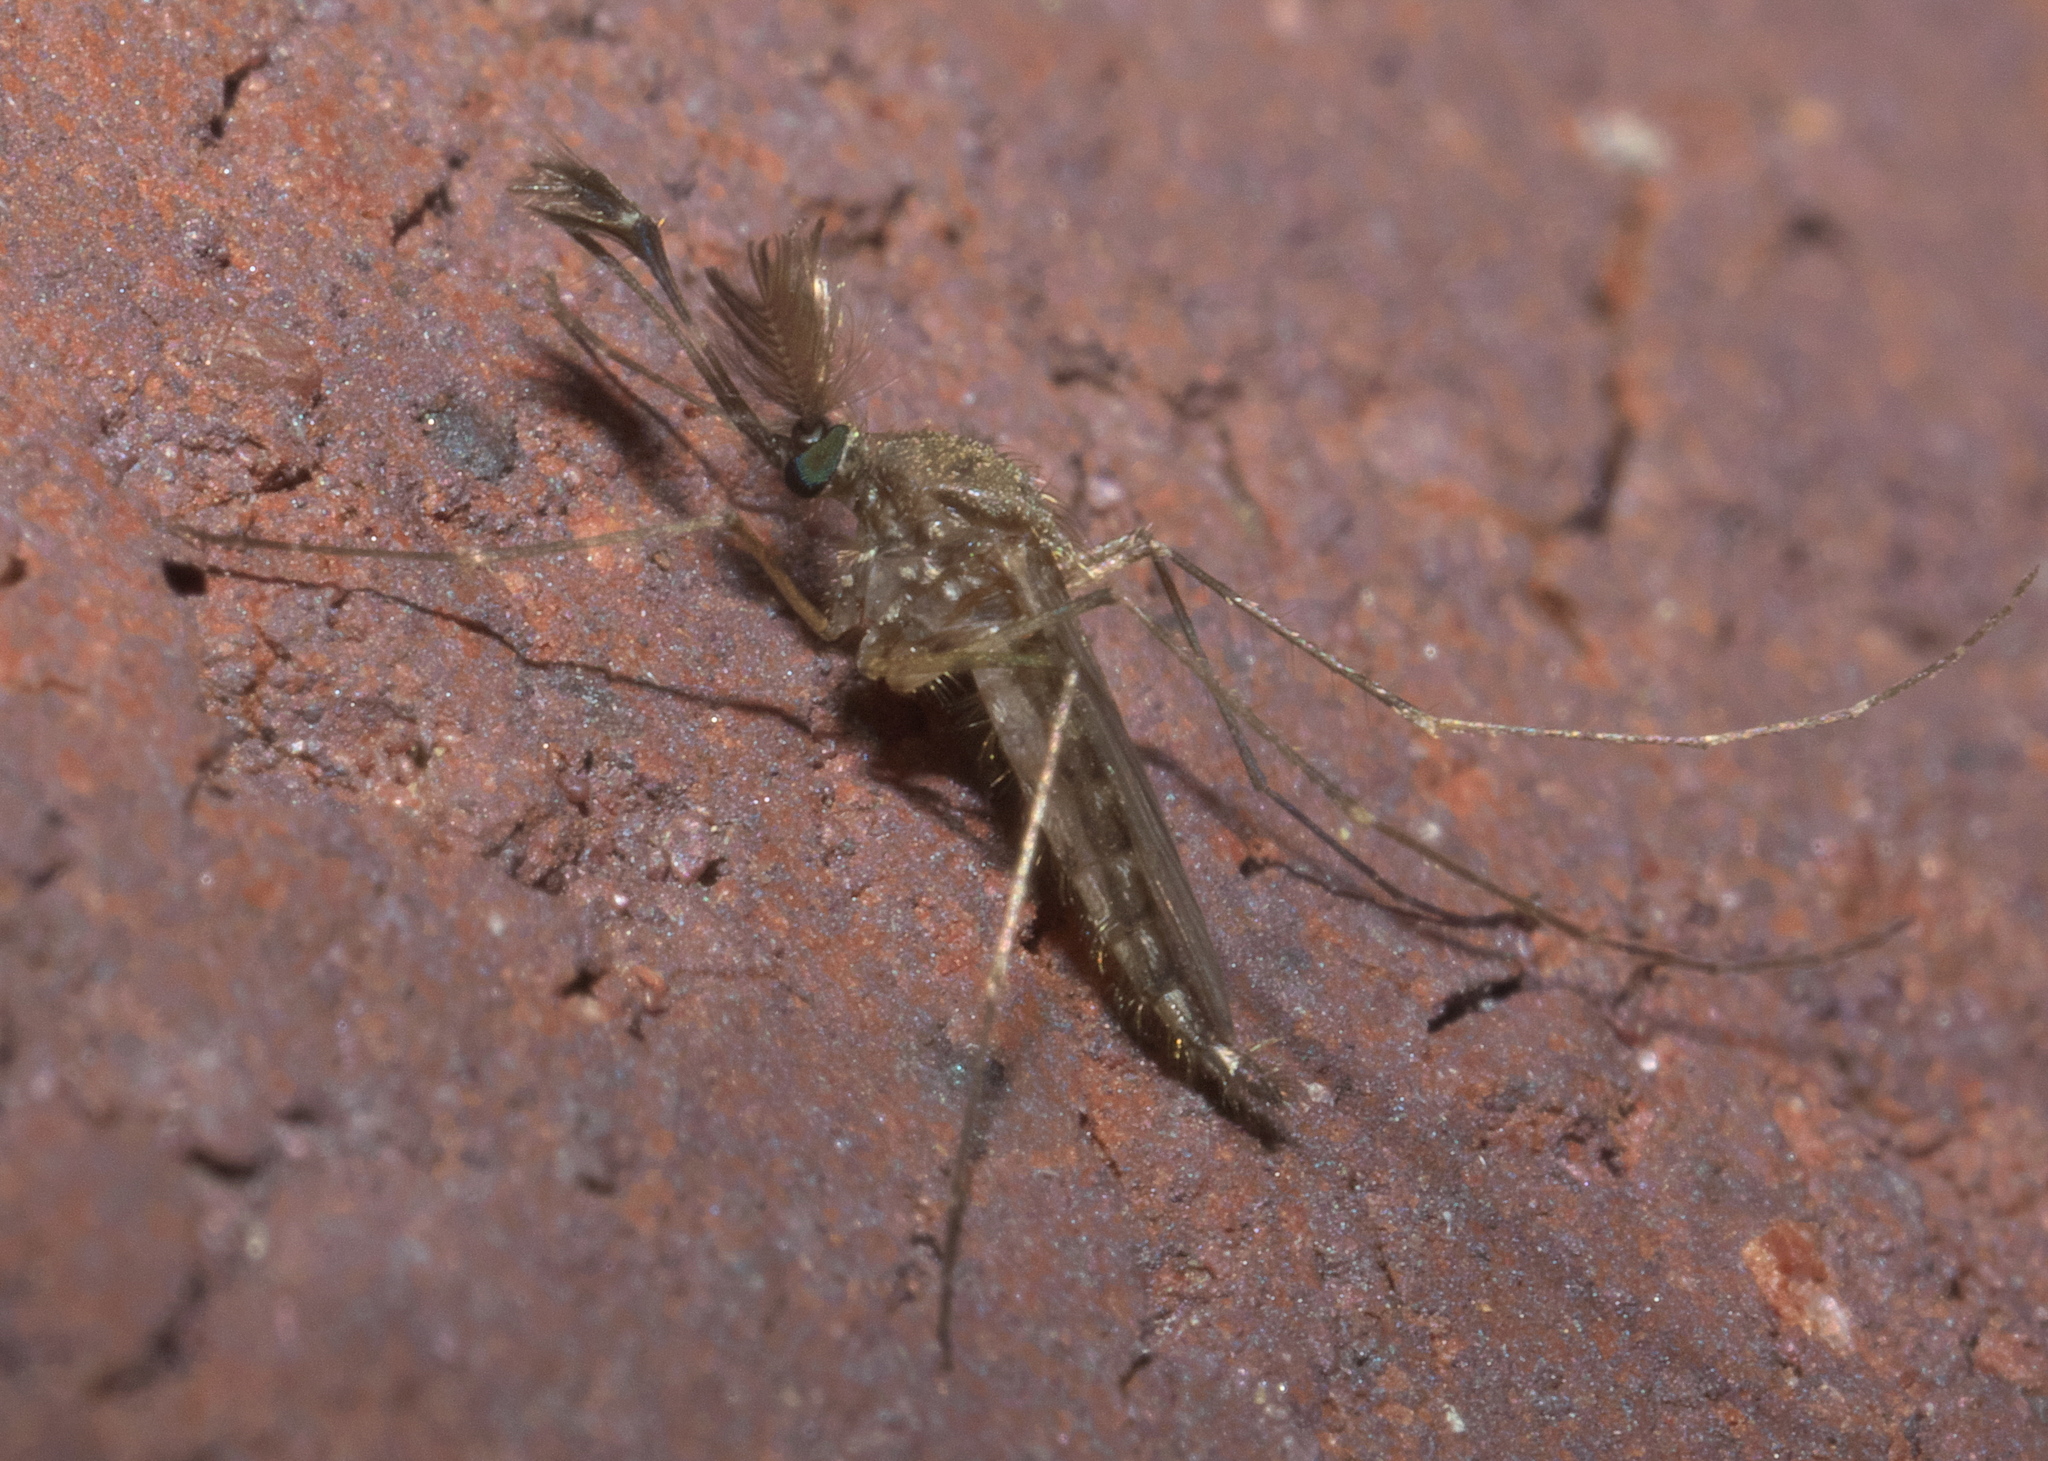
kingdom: Animalia
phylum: Arthropoda
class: Insecta
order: Diptera
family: Culicidae
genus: Aedes
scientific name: Aedes vexans
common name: Inland floodwater mosquito
